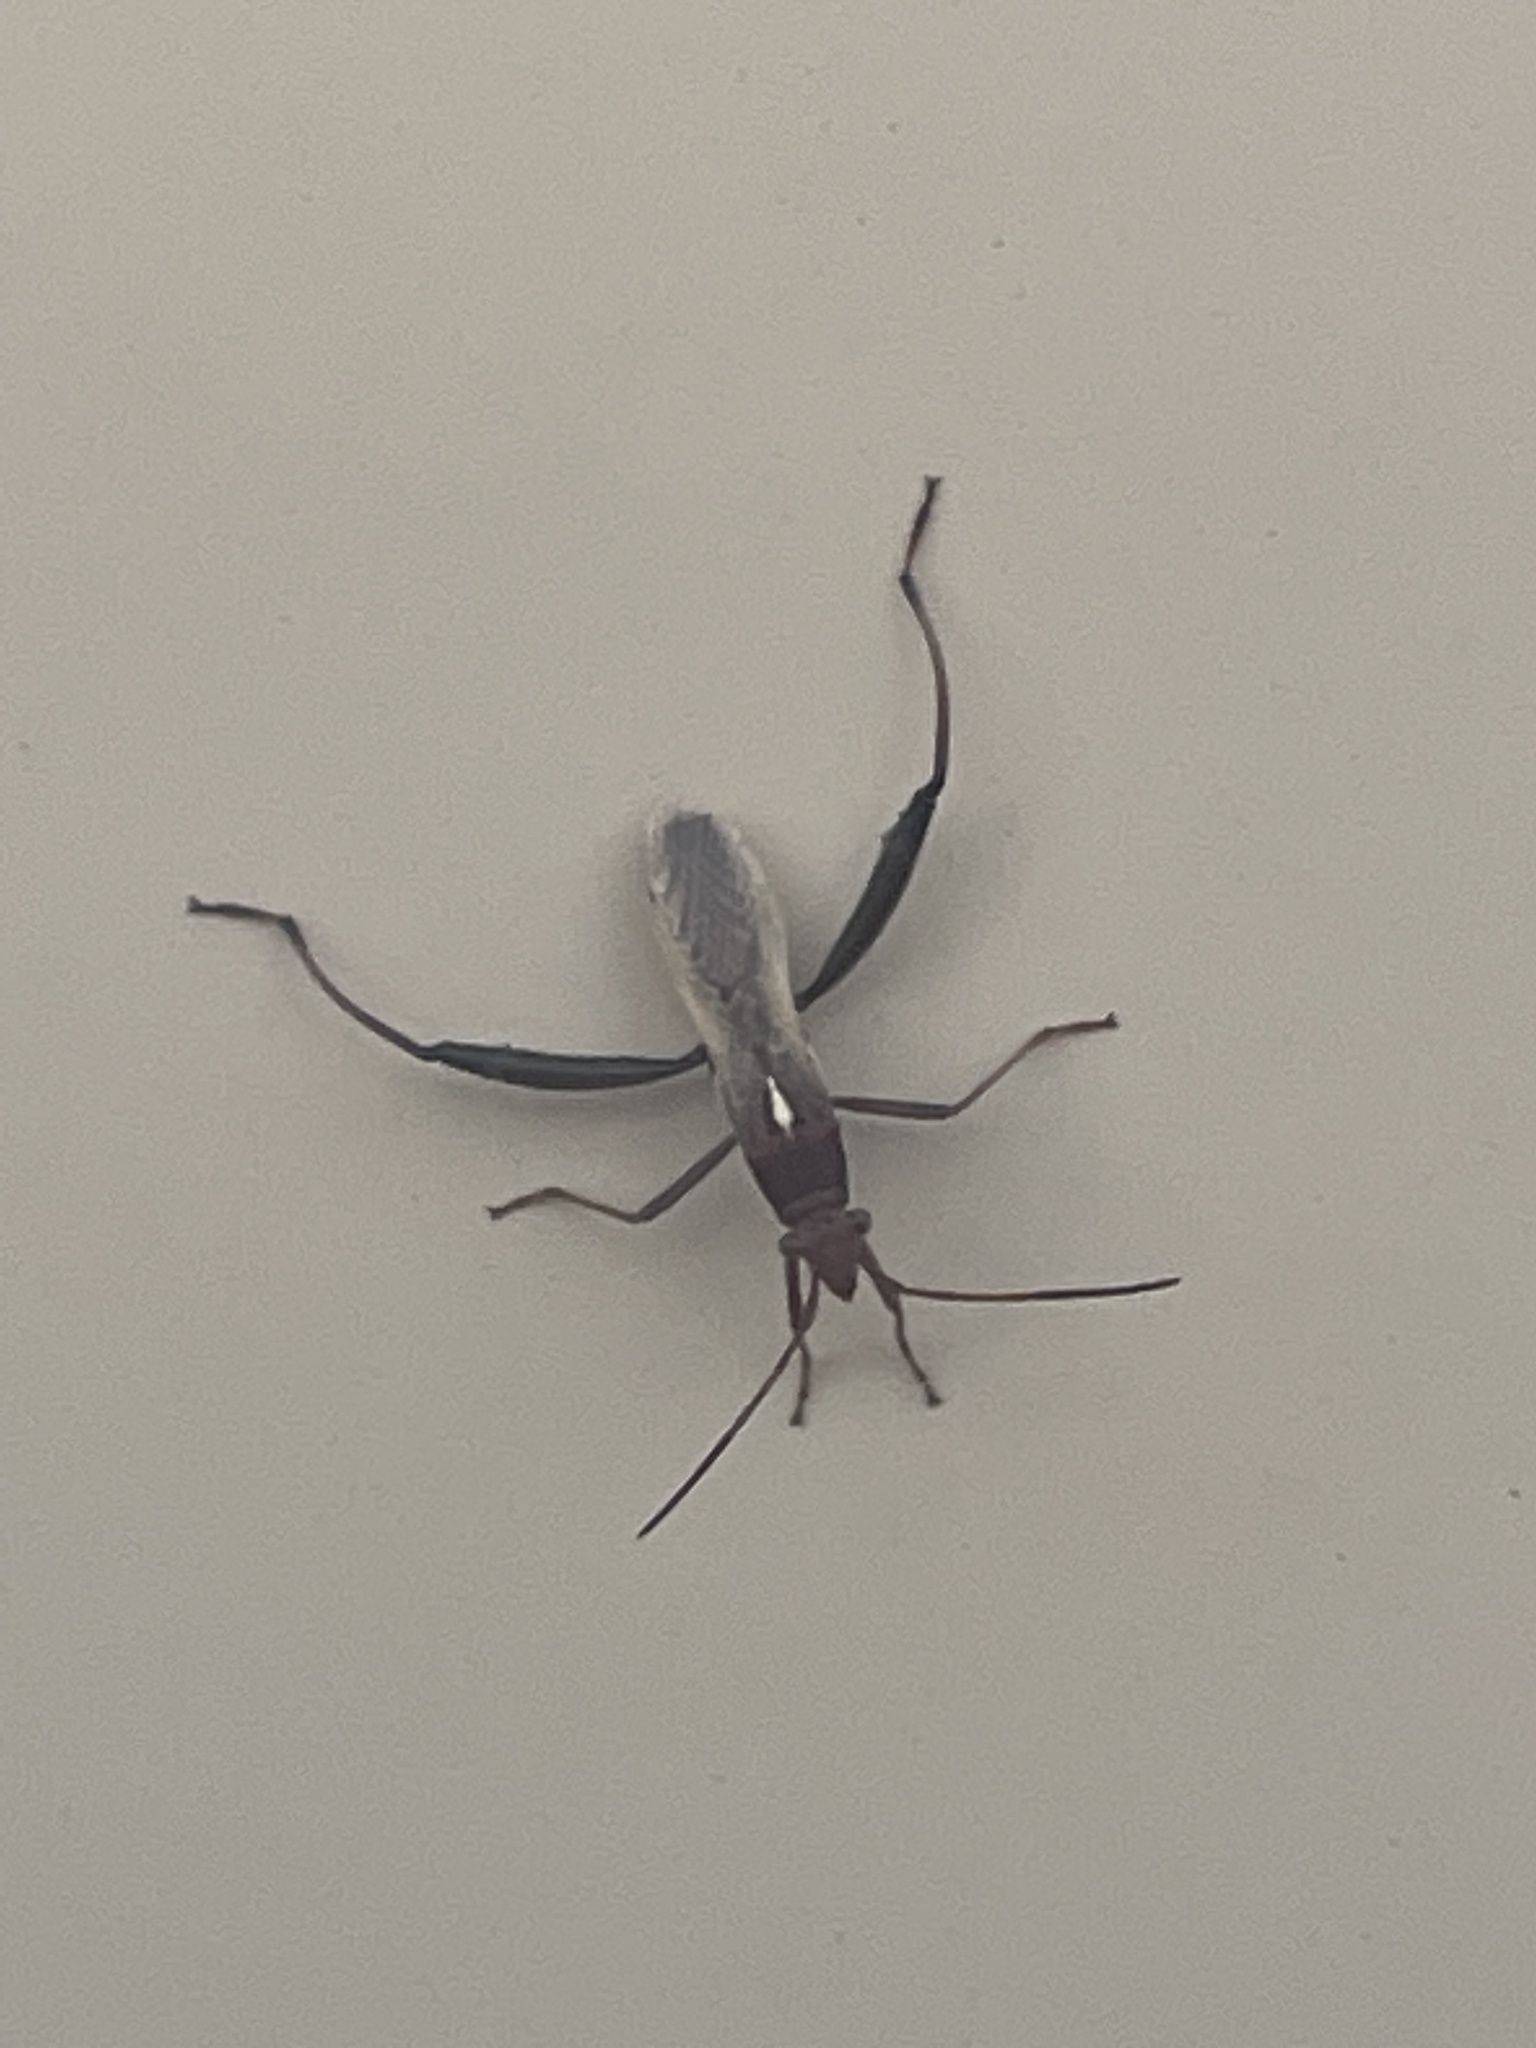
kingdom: Animalia
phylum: Arthropoda
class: Insecta
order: Hemiptera
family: Alydidae
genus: Melanacanthus
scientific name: Melanacanthus scutellaris
